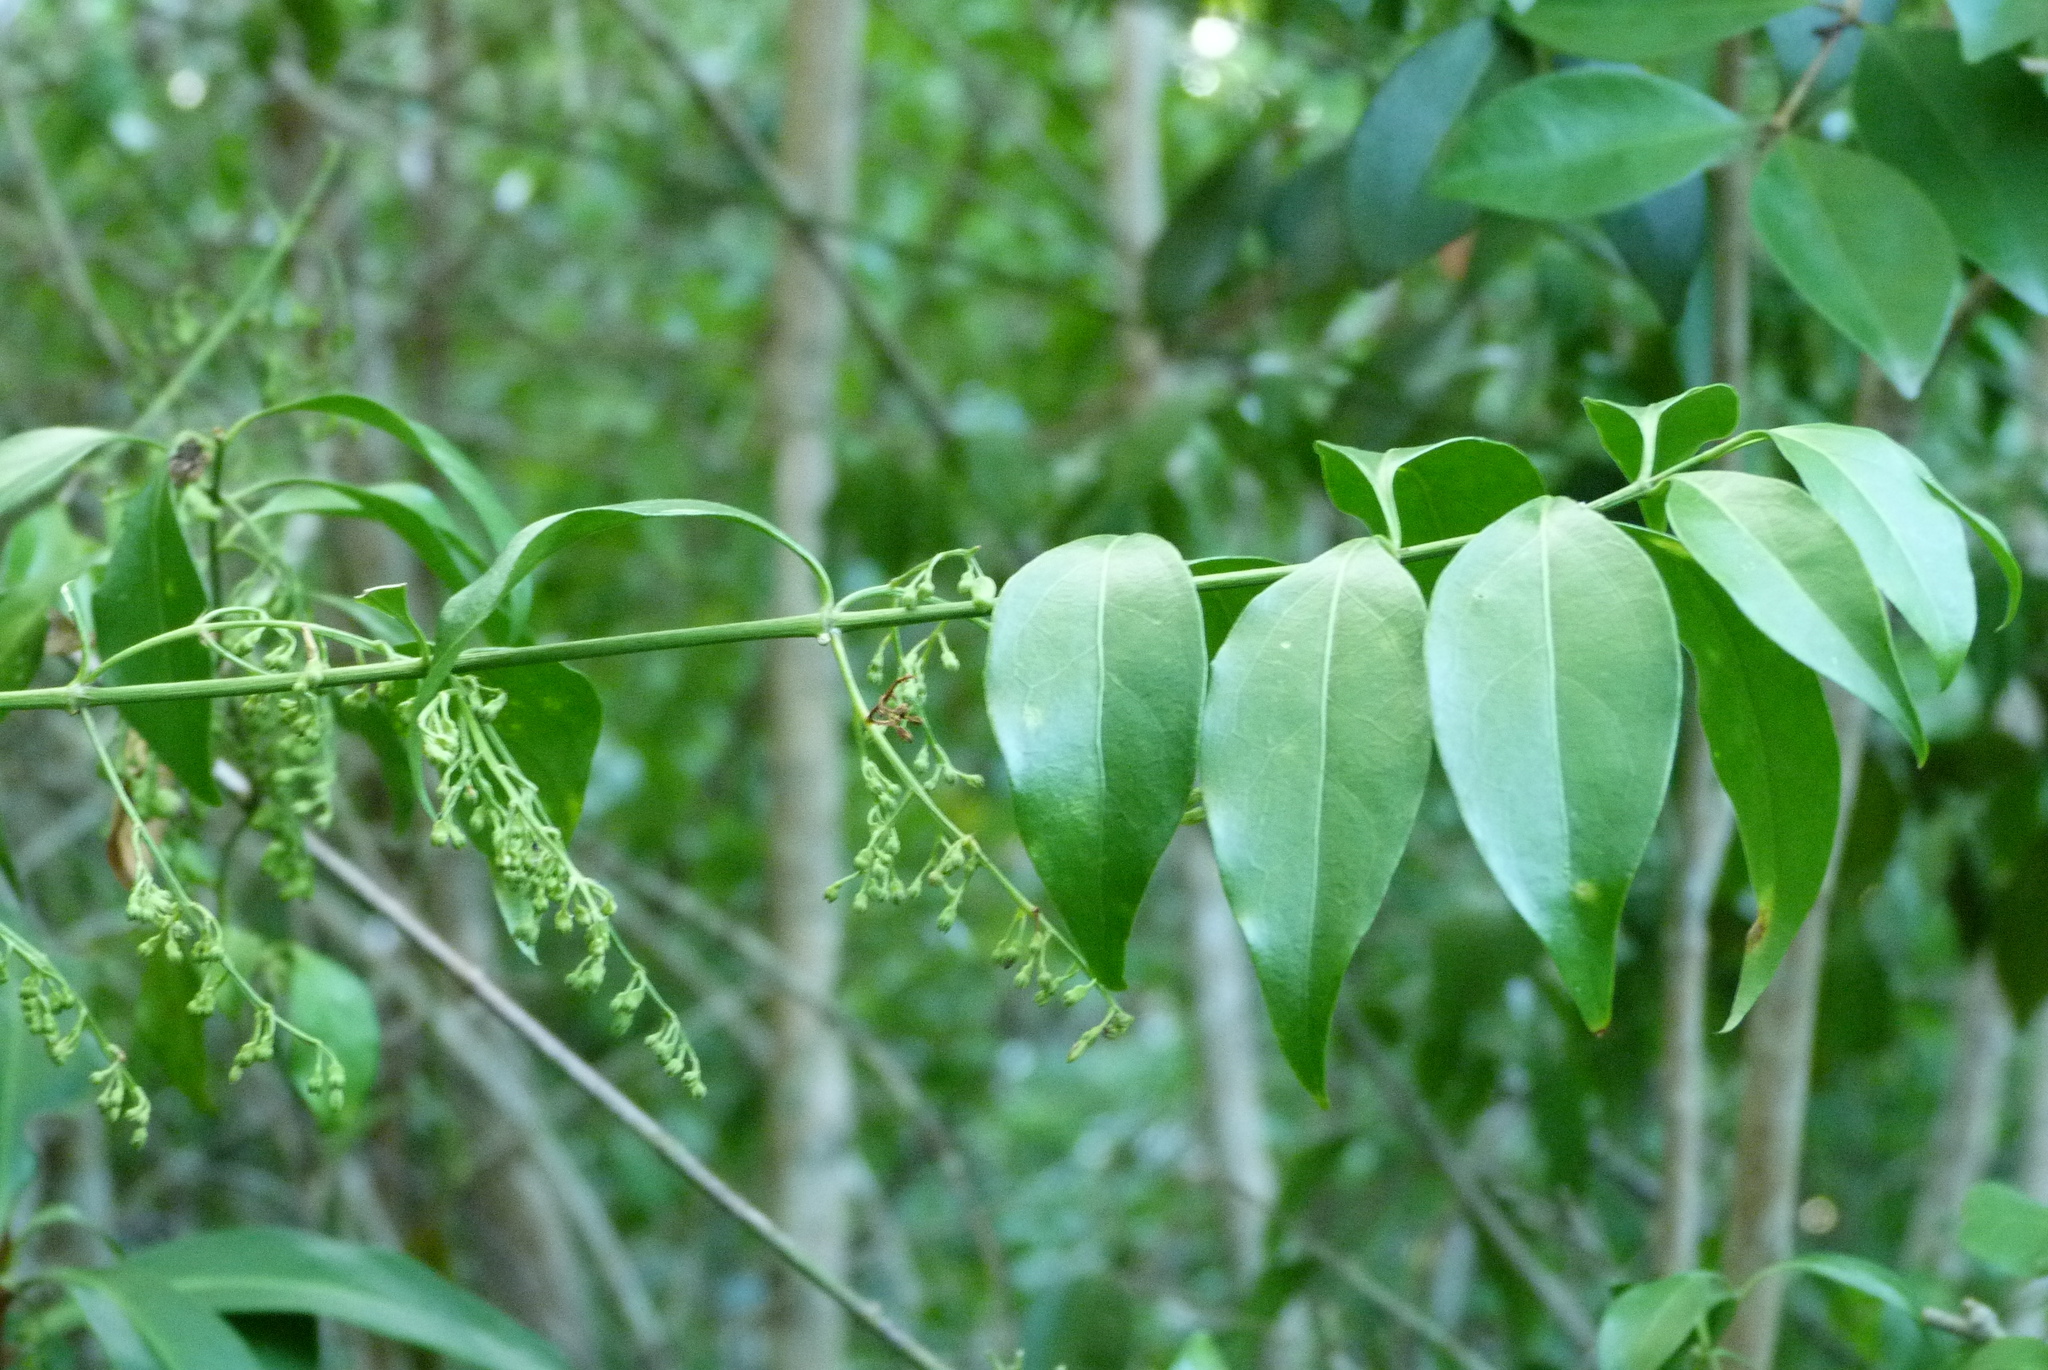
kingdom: Plantae
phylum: Tracheophyta
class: Magnoliopsida
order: Gentianales
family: Rubiaceae
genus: Chiococca
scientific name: Chiococca alba
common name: Snowberry
